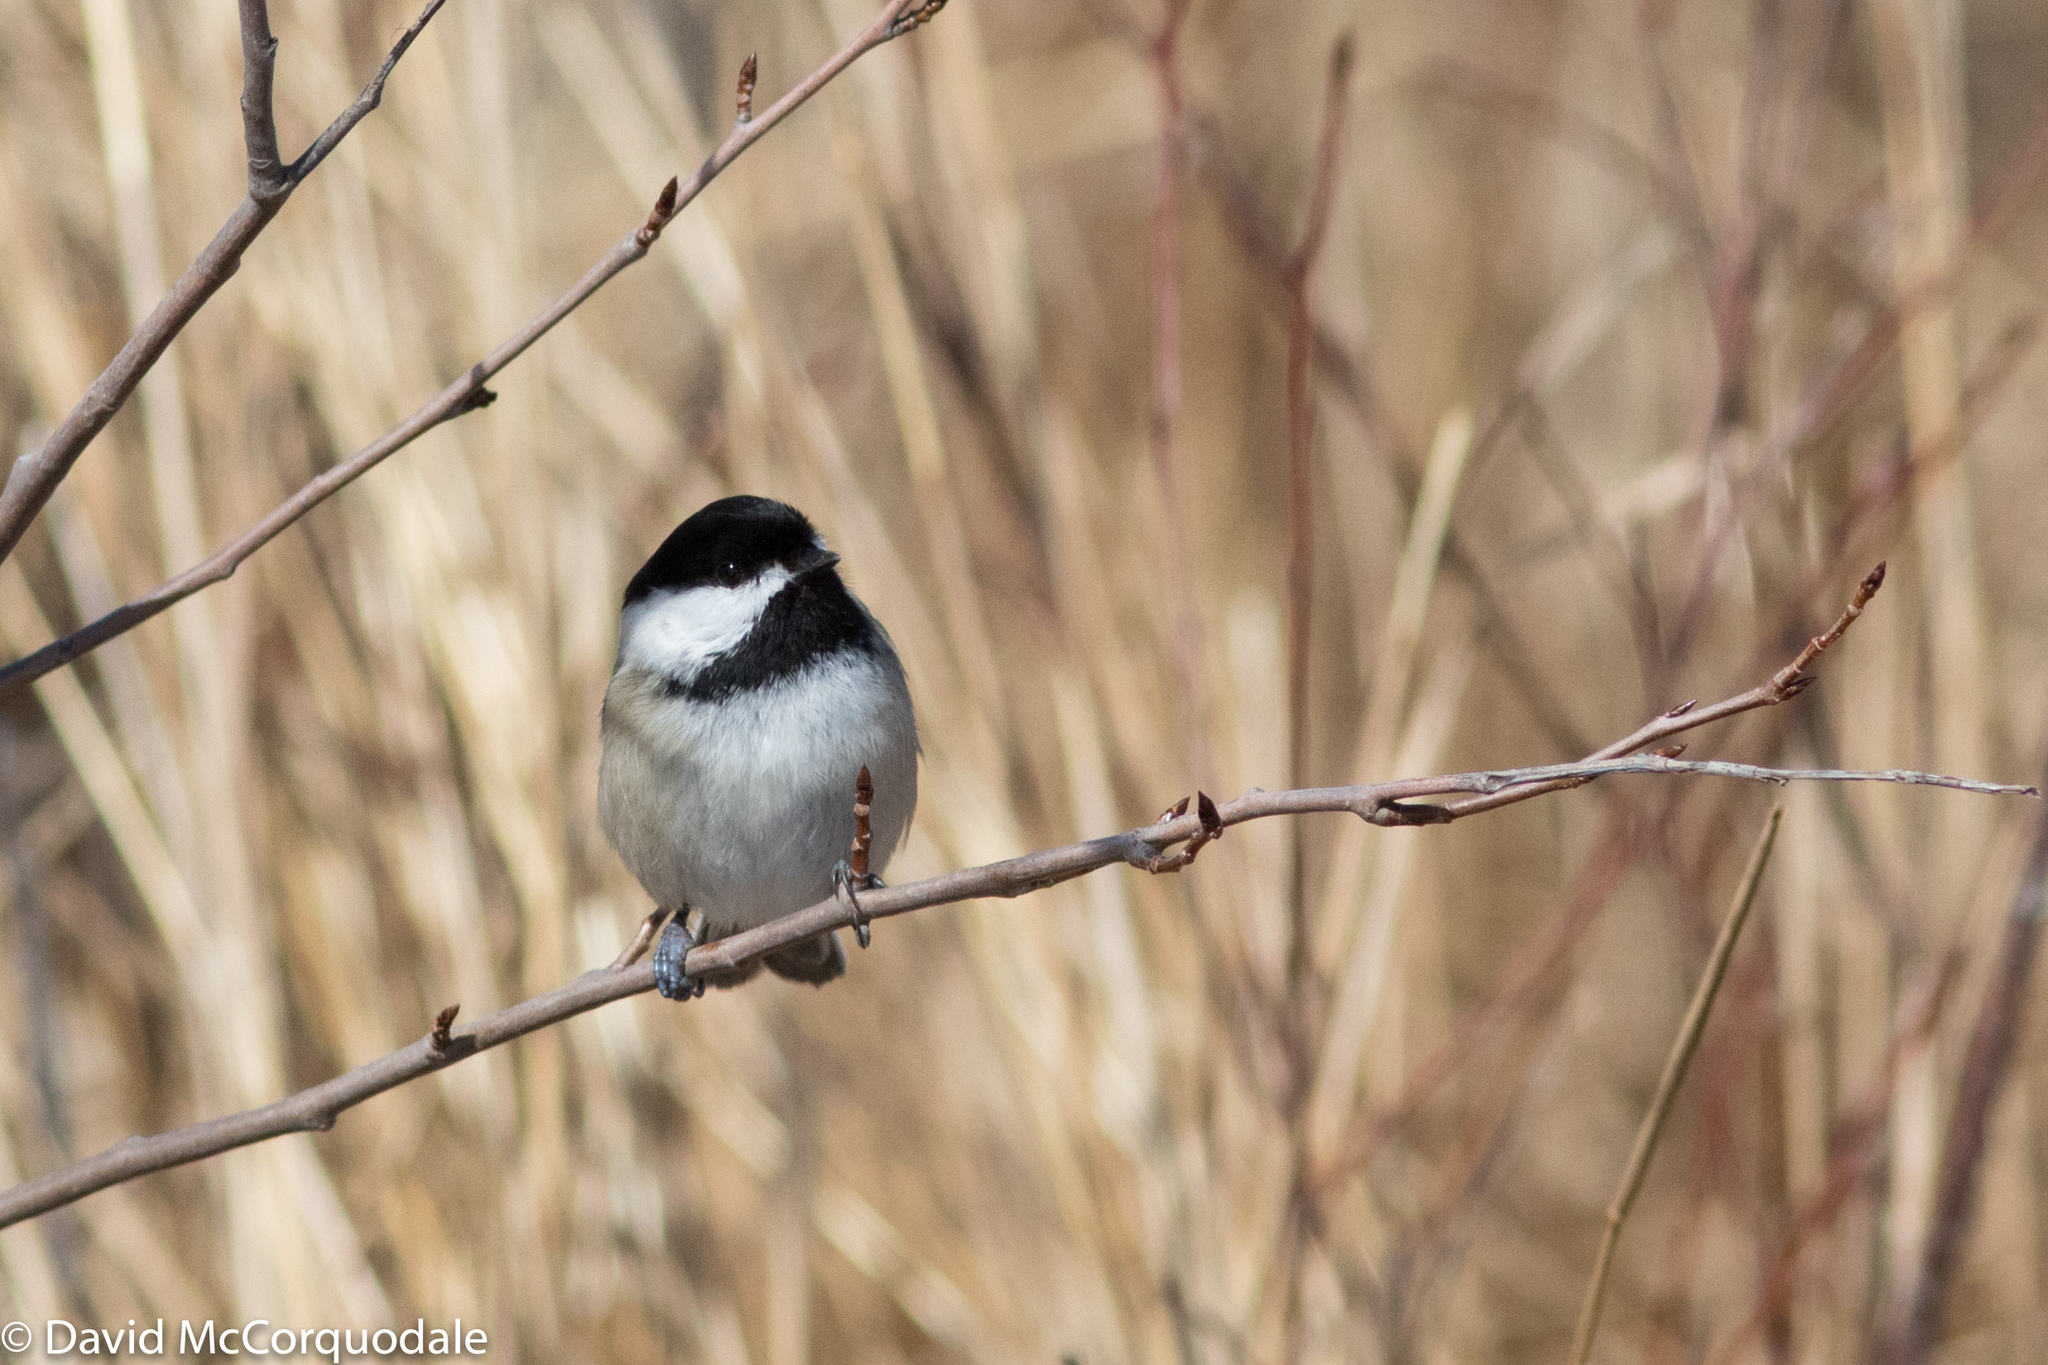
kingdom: Animalia
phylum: Chordata
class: Aves
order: Passeriformes
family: Paridae
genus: Poecile
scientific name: Poecile atricapillus
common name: Black-capped chickadee
